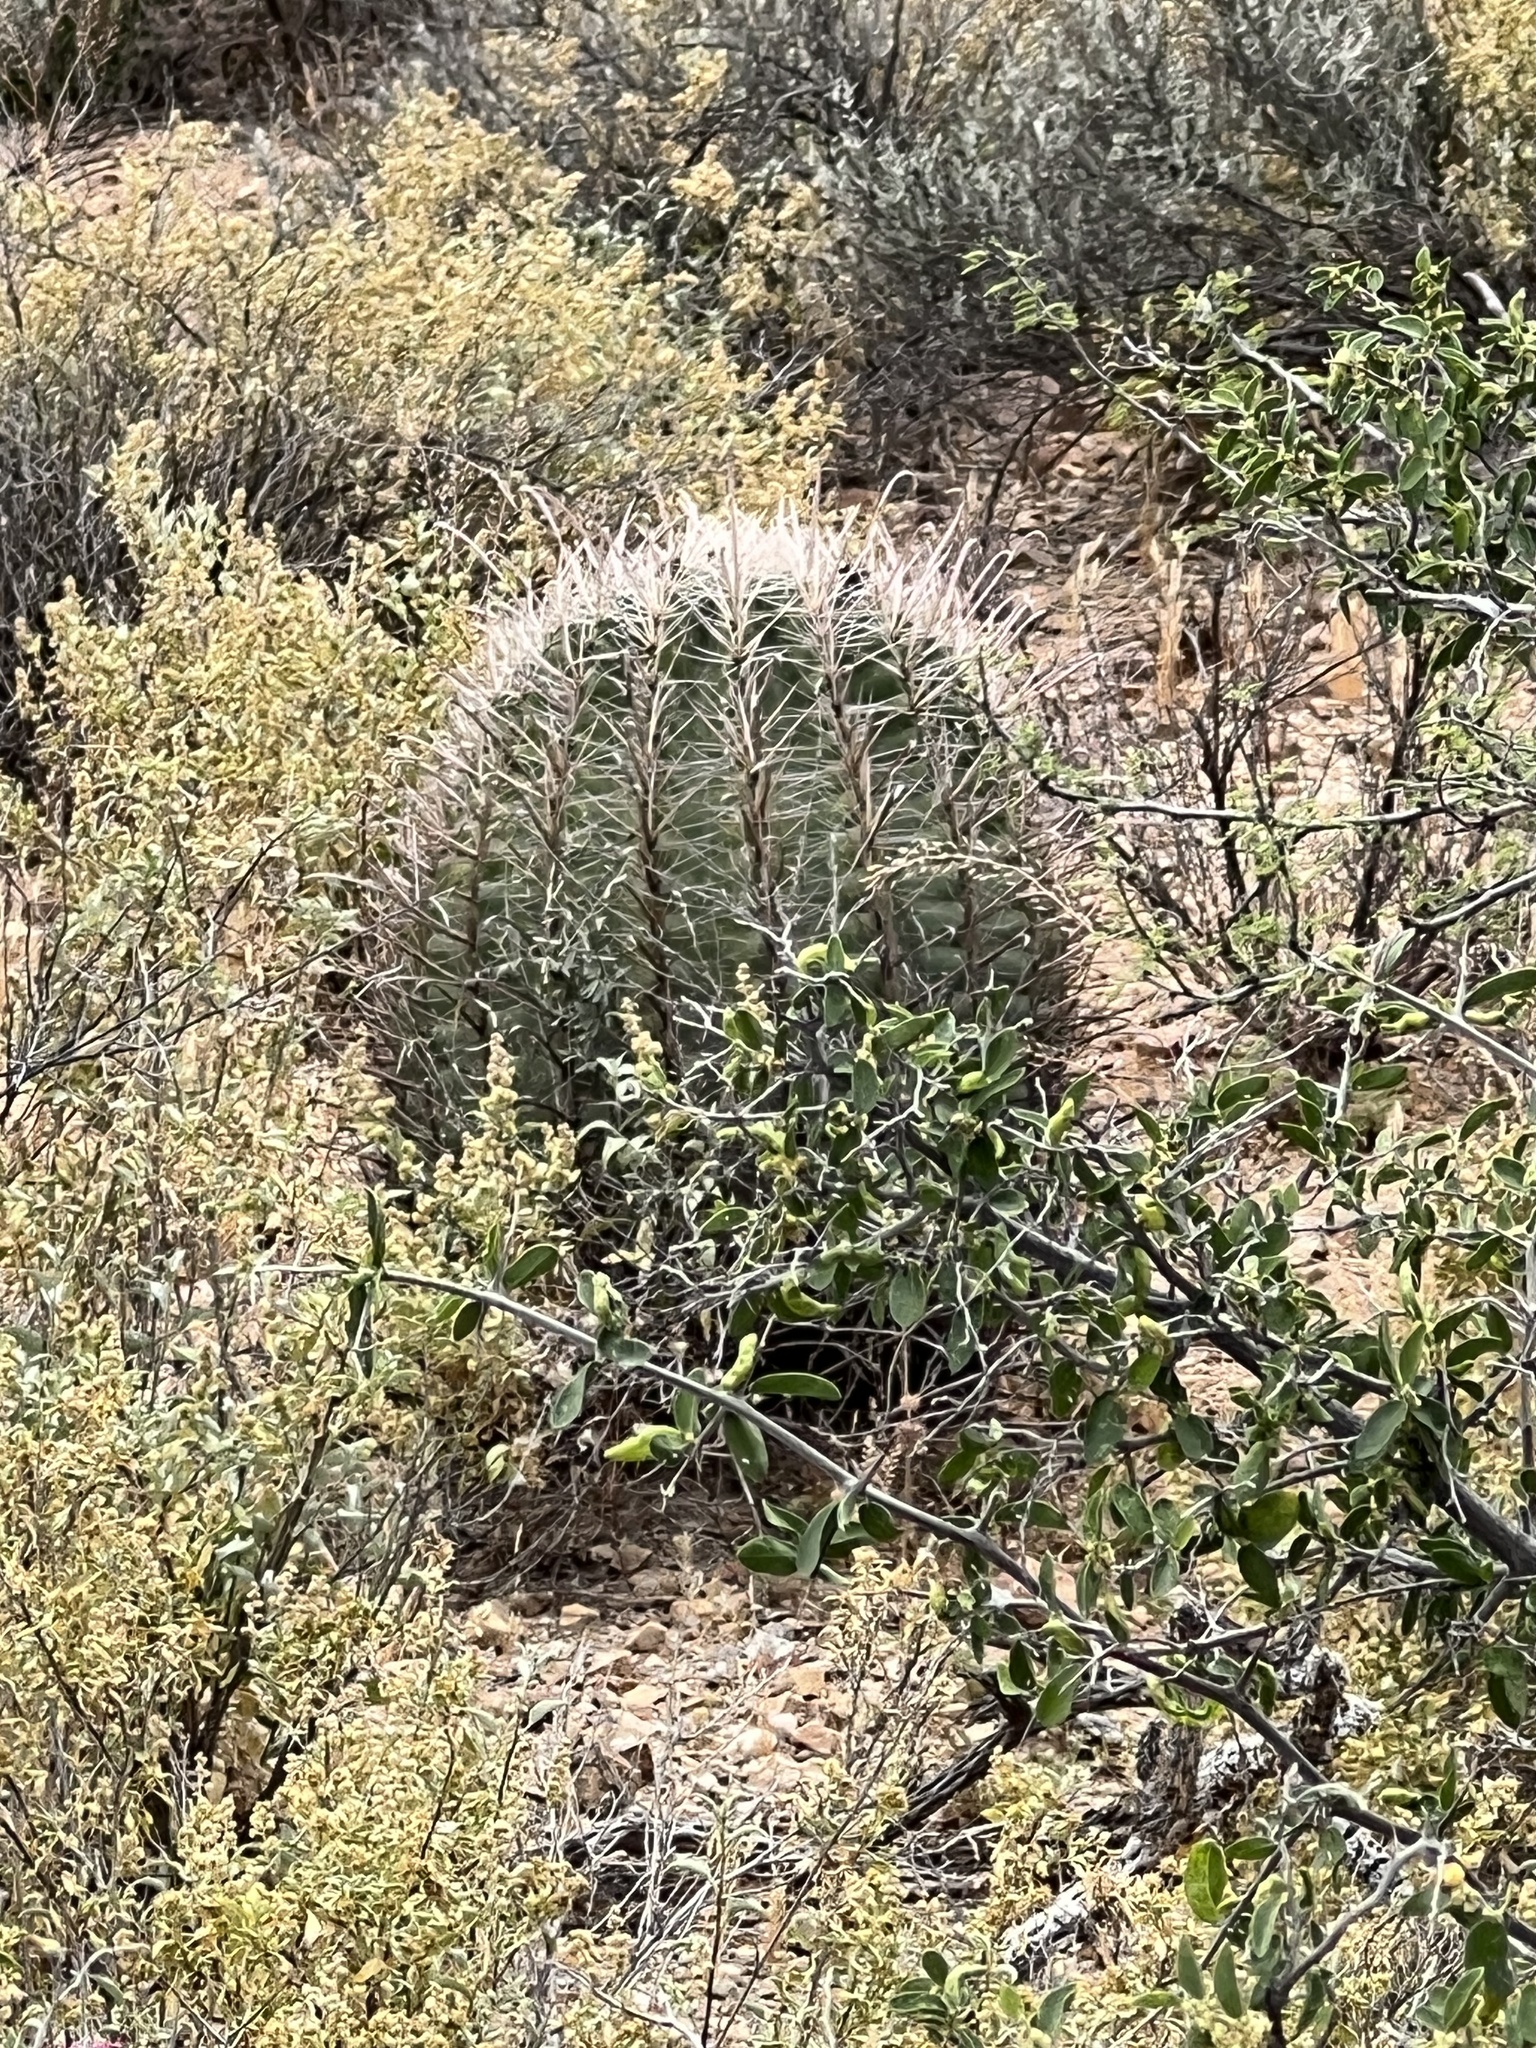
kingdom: Plantae
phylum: Tracheophyta
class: Magnoliopsida
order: Caryophyllales
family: Cactaceae
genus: Ferocactus
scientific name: Ferocactus wislizeni
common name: Candy barrel cactus
